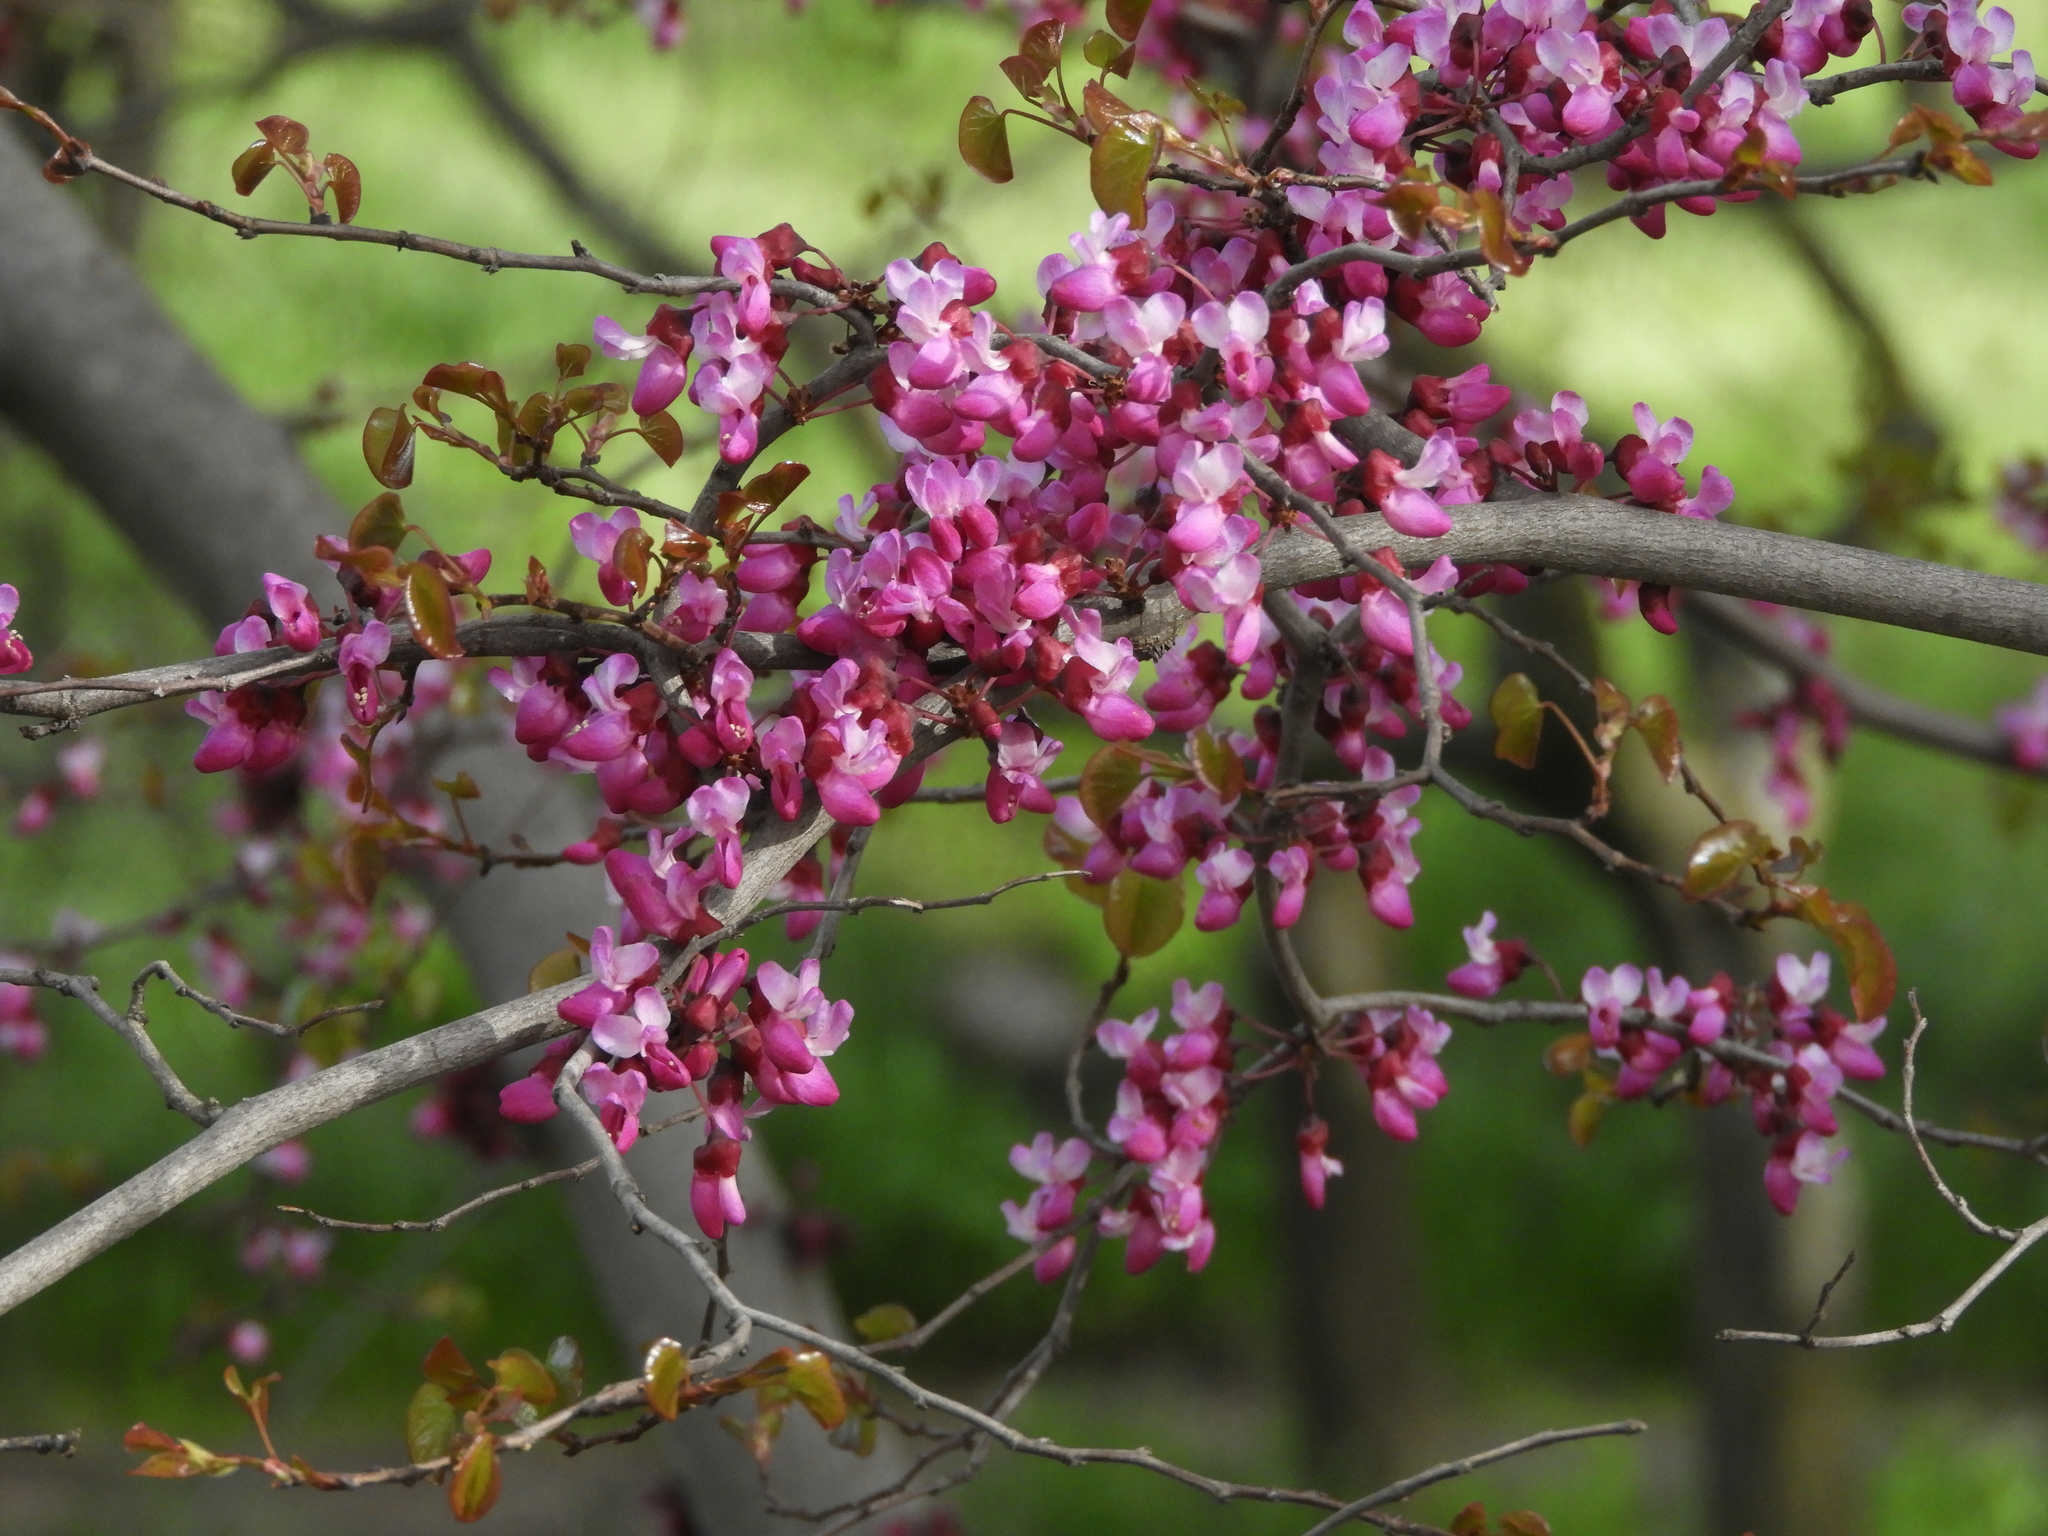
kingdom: Plantae
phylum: Tracheophyta
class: Magnoliopsida
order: Fabales
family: Fabaceae
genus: Cercis
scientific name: Cercis occidentalis
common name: California redbud
